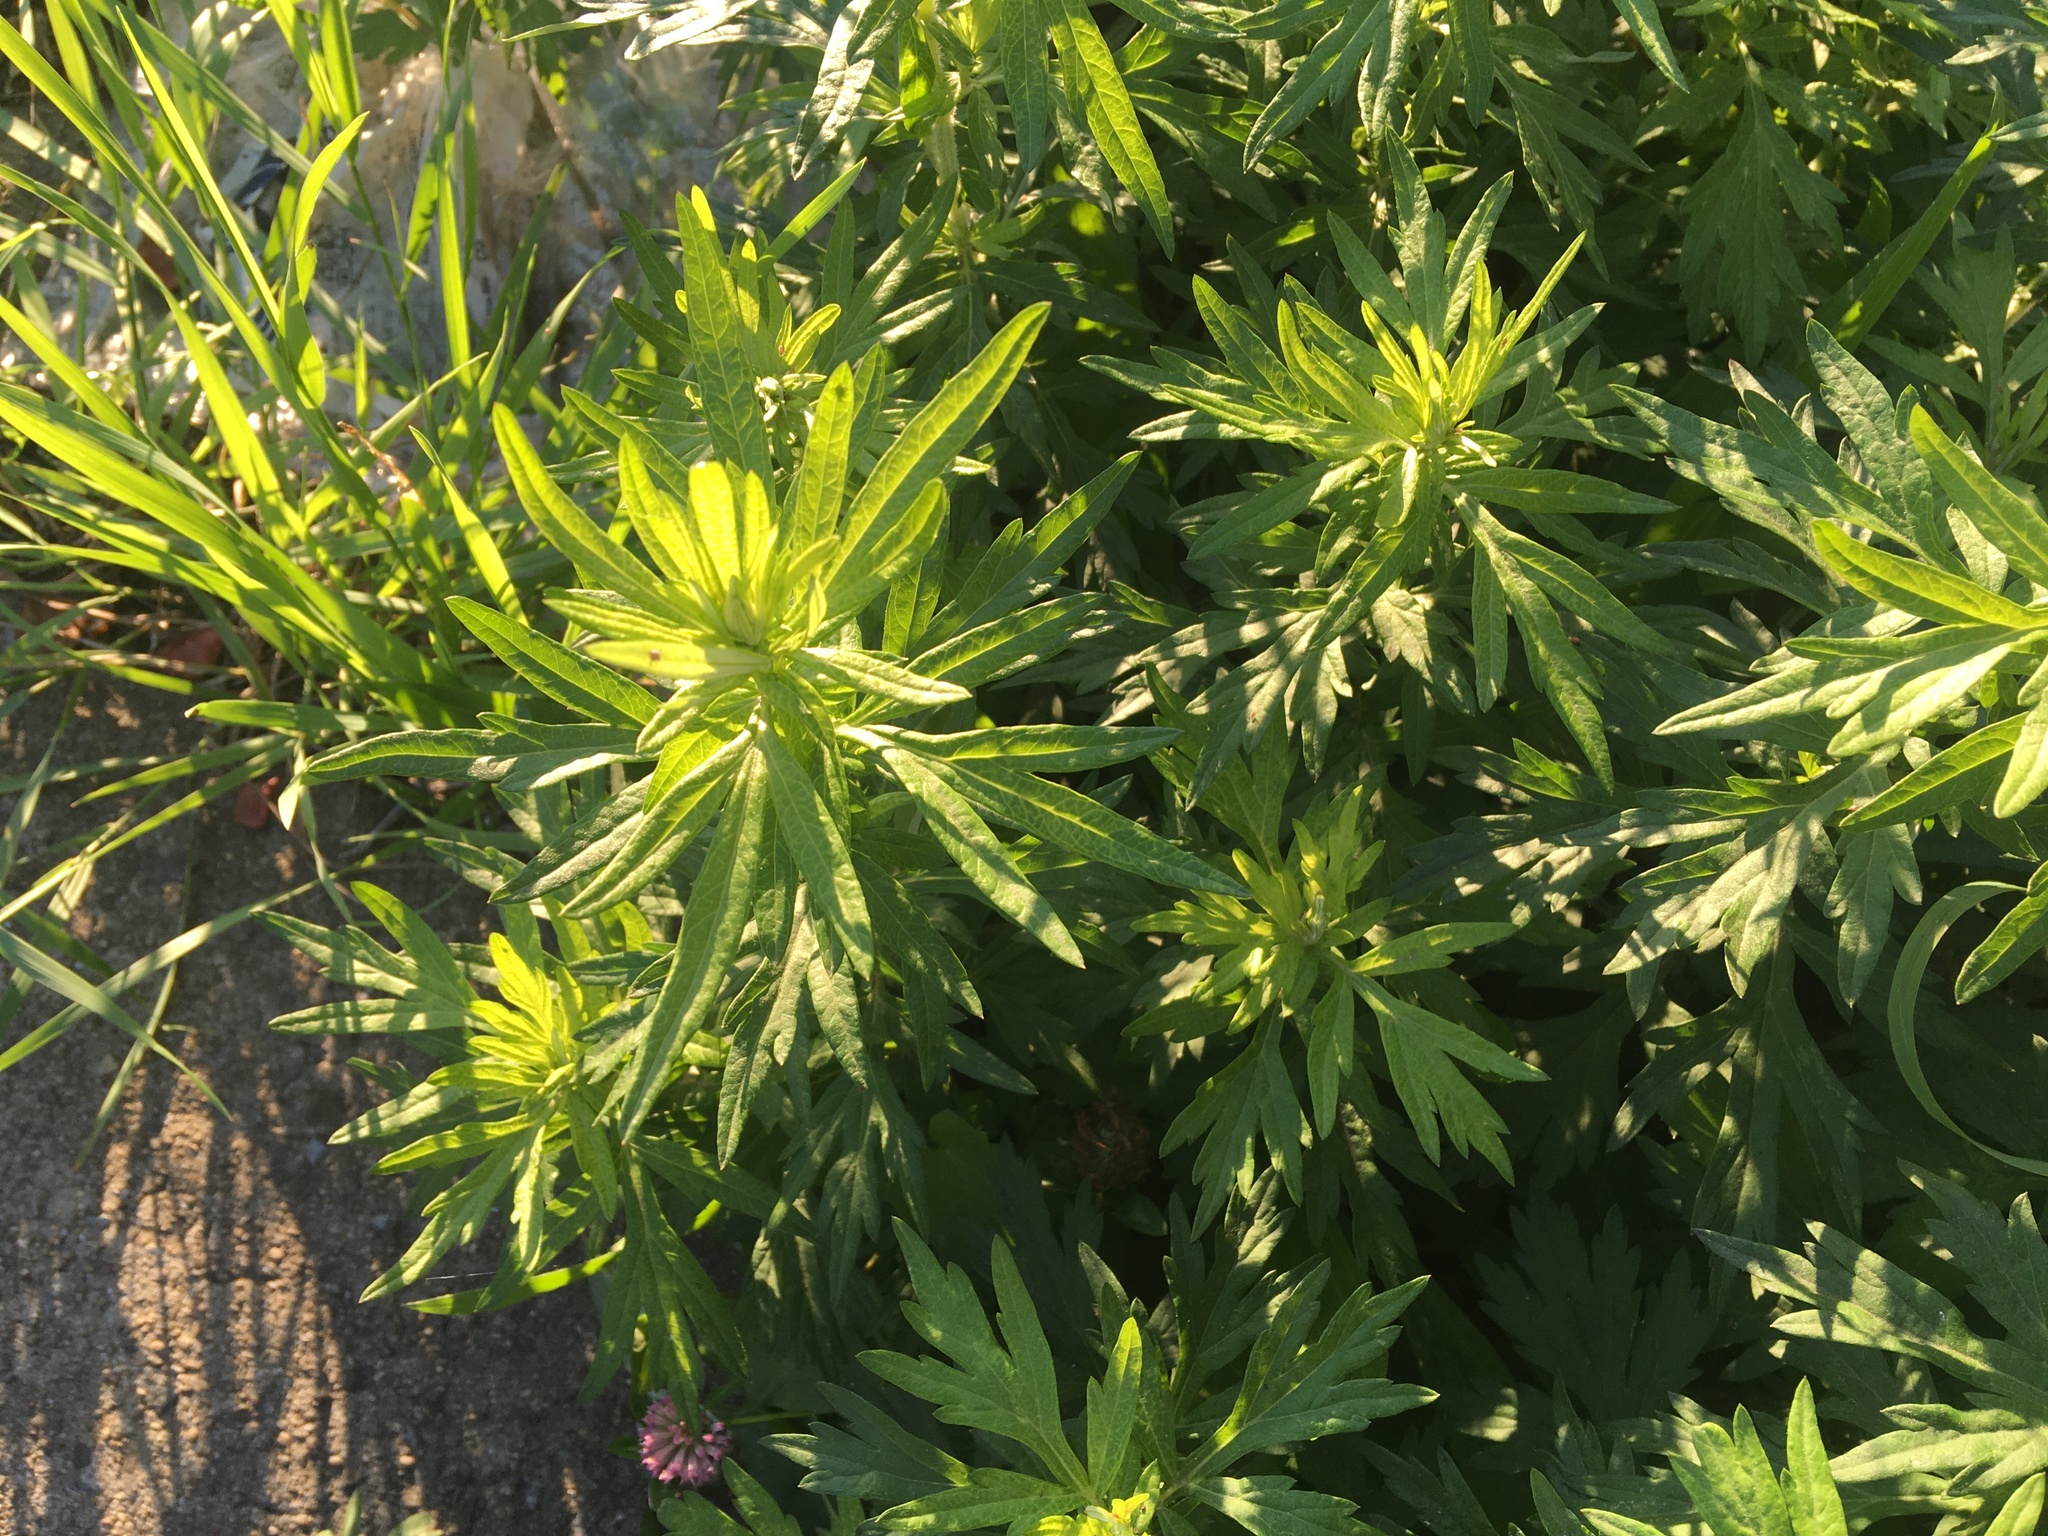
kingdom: Plantae
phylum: Tracheophyta
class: Magnoliopsida
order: Asterales
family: Asteraceae
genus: Artemisia
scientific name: Artemisia vulgaris
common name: Mugwort
